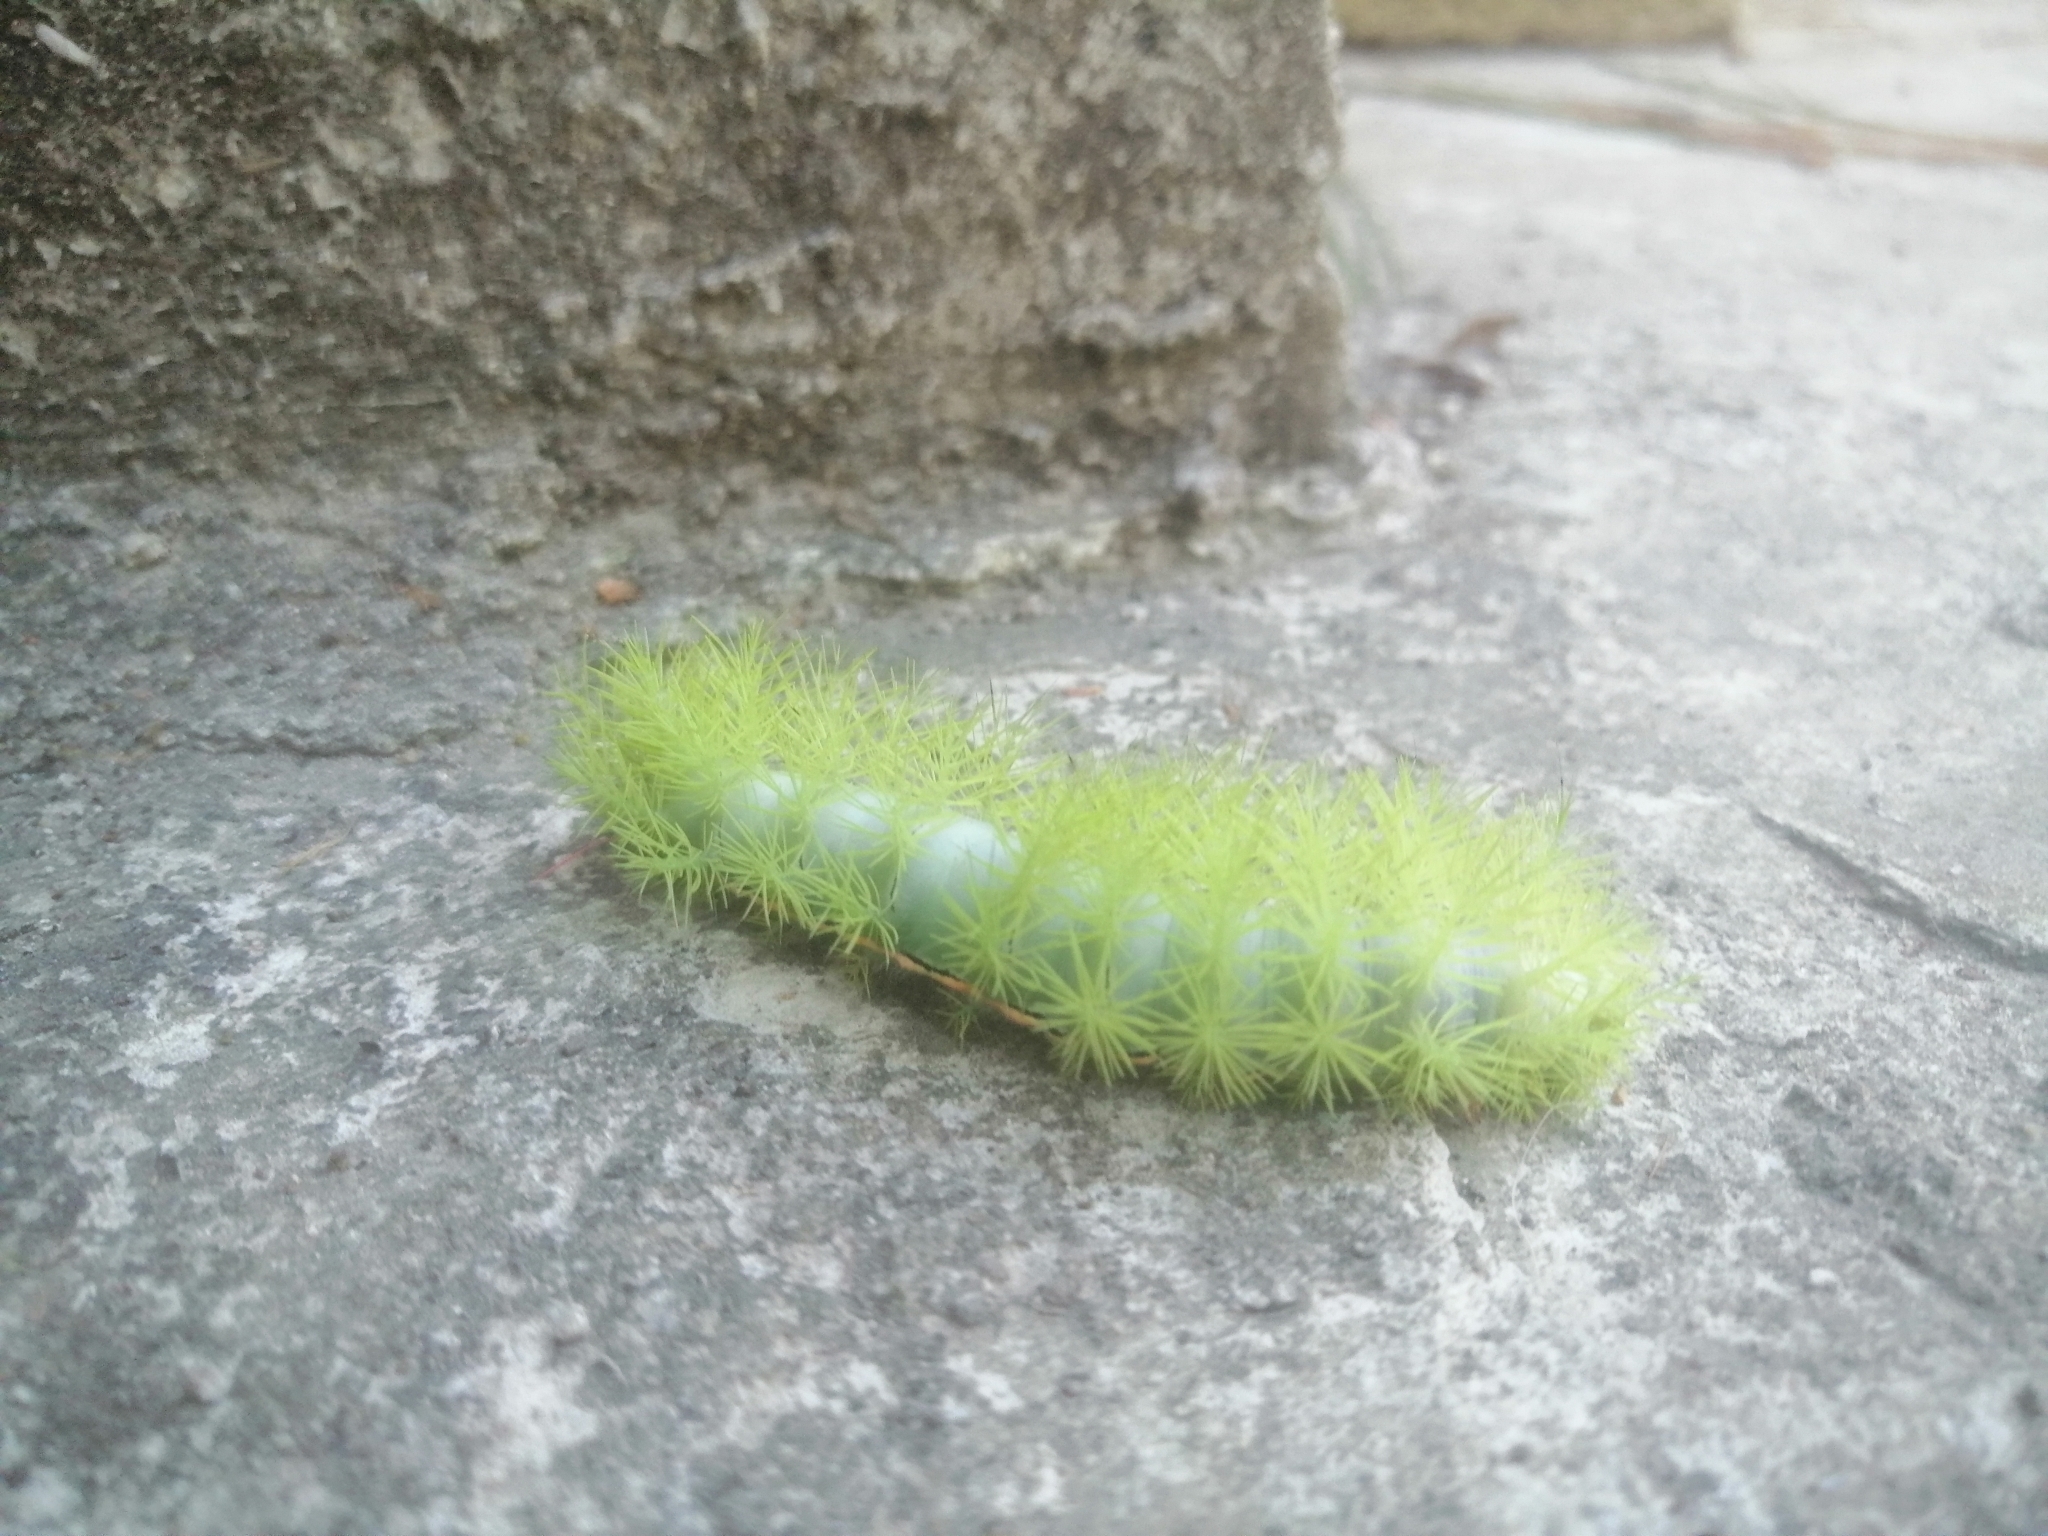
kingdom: Animalia
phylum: Arthropoda
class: Insecta
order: Lepidoptera
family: Saturniidae
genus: Automeris
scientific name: Automeris io
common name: Io moth
